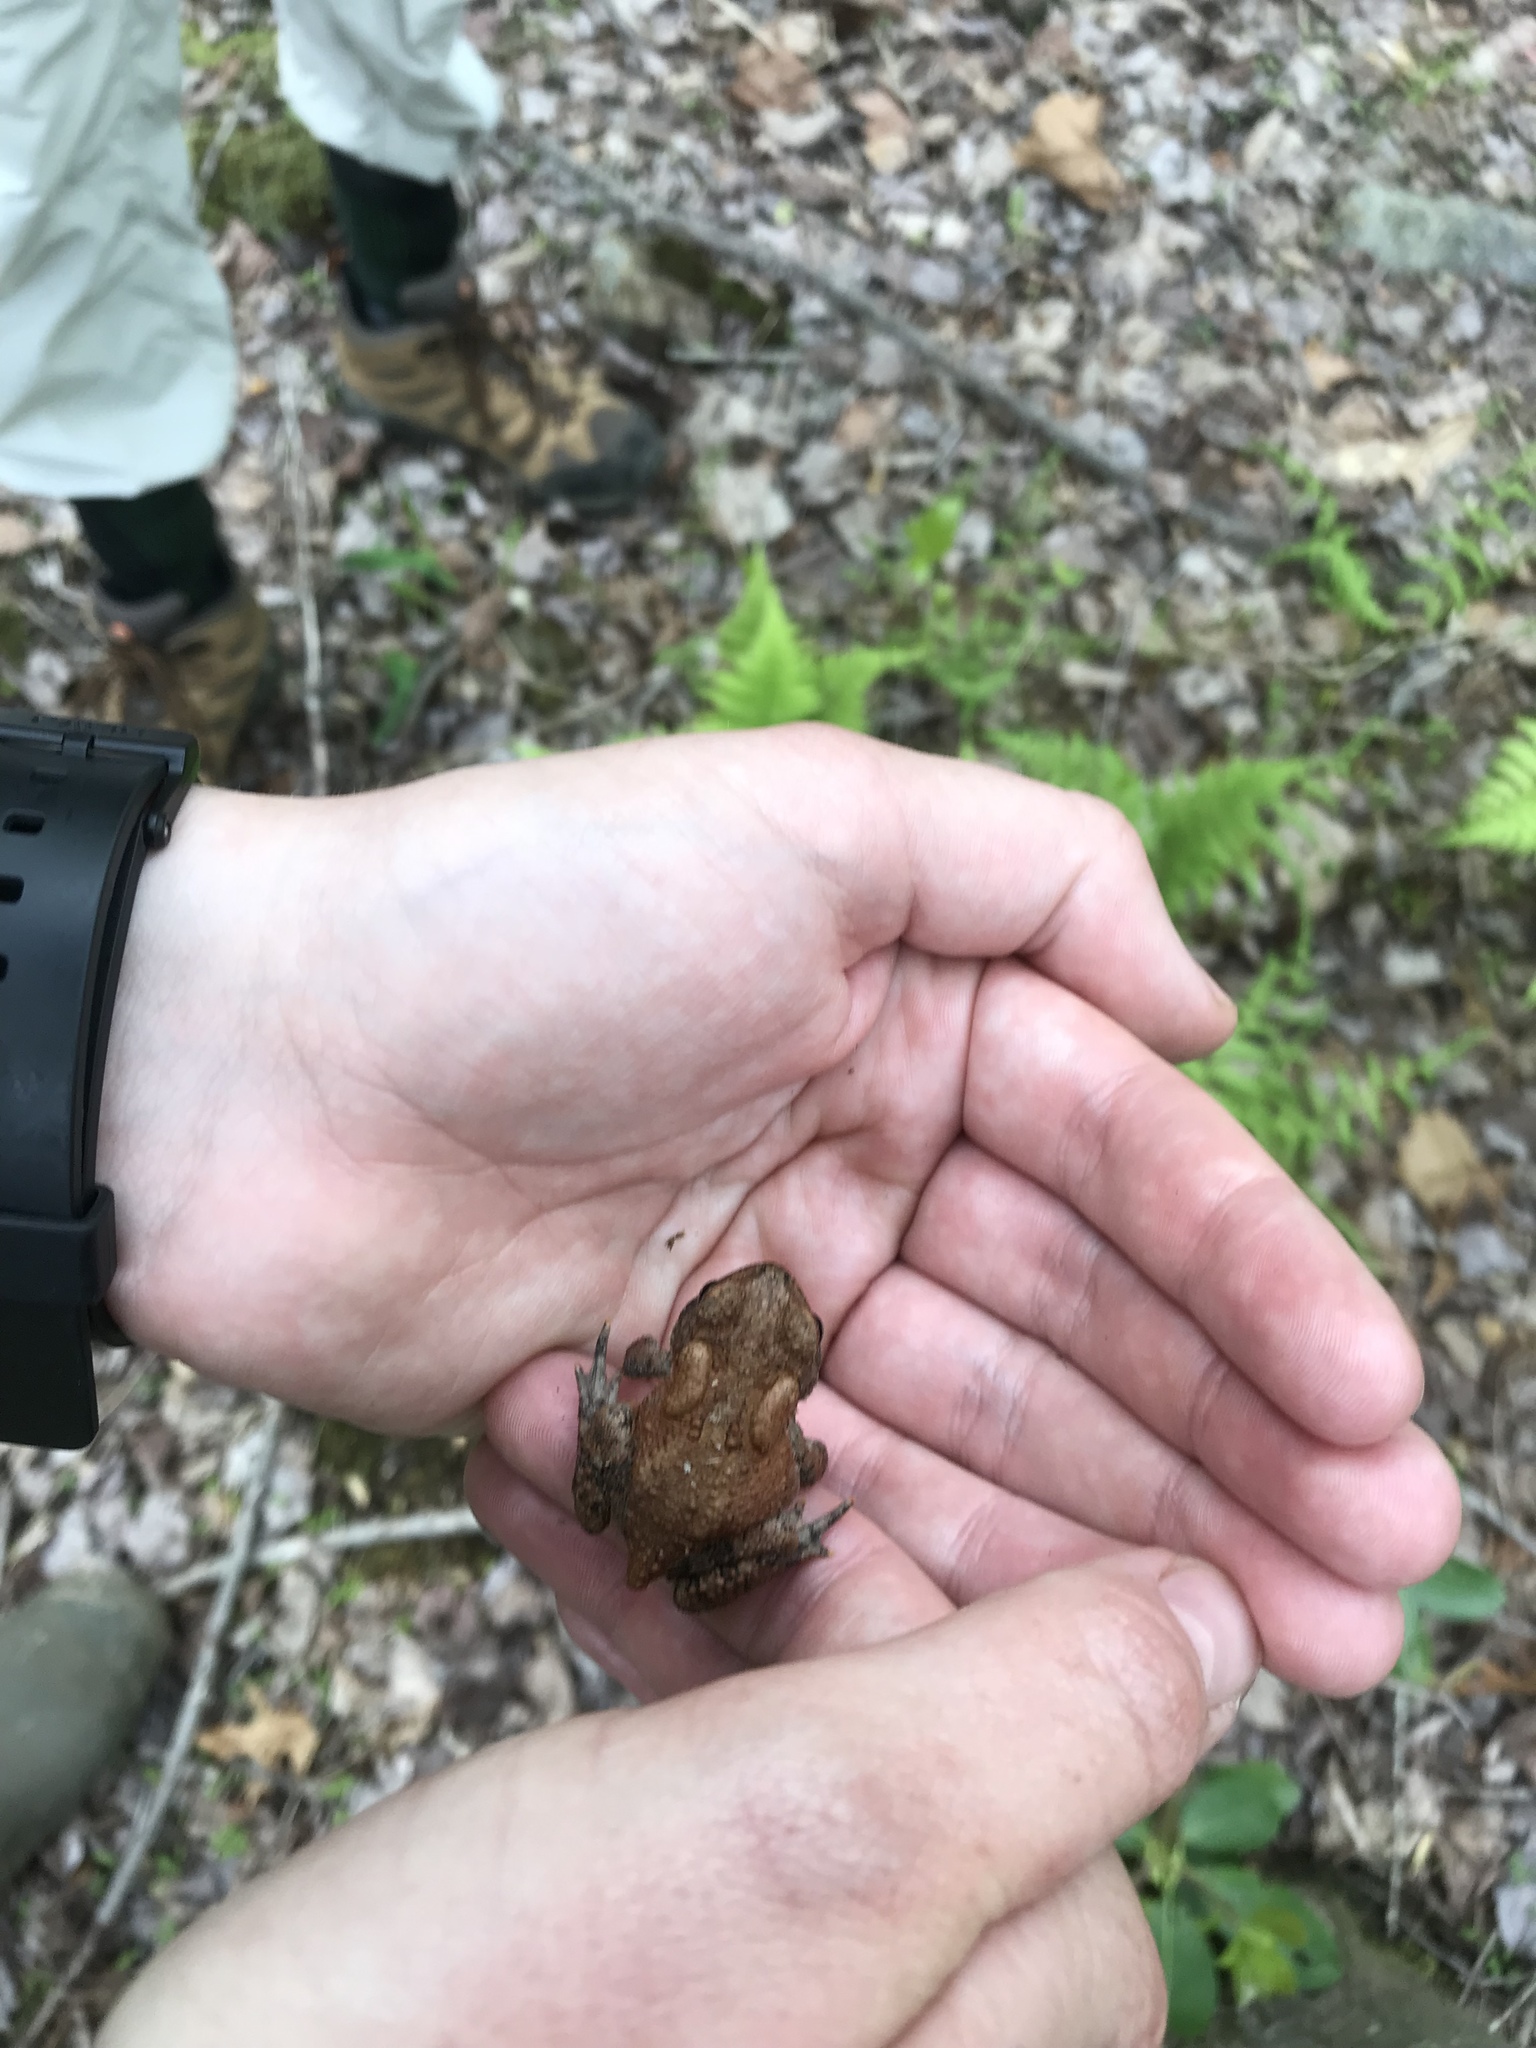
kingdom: Animalia
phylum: Chordata
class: Amphibia
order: Anura
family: Bufonidae
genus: Anaxyrus
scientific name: Anaxyrus americanus
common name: American toad
